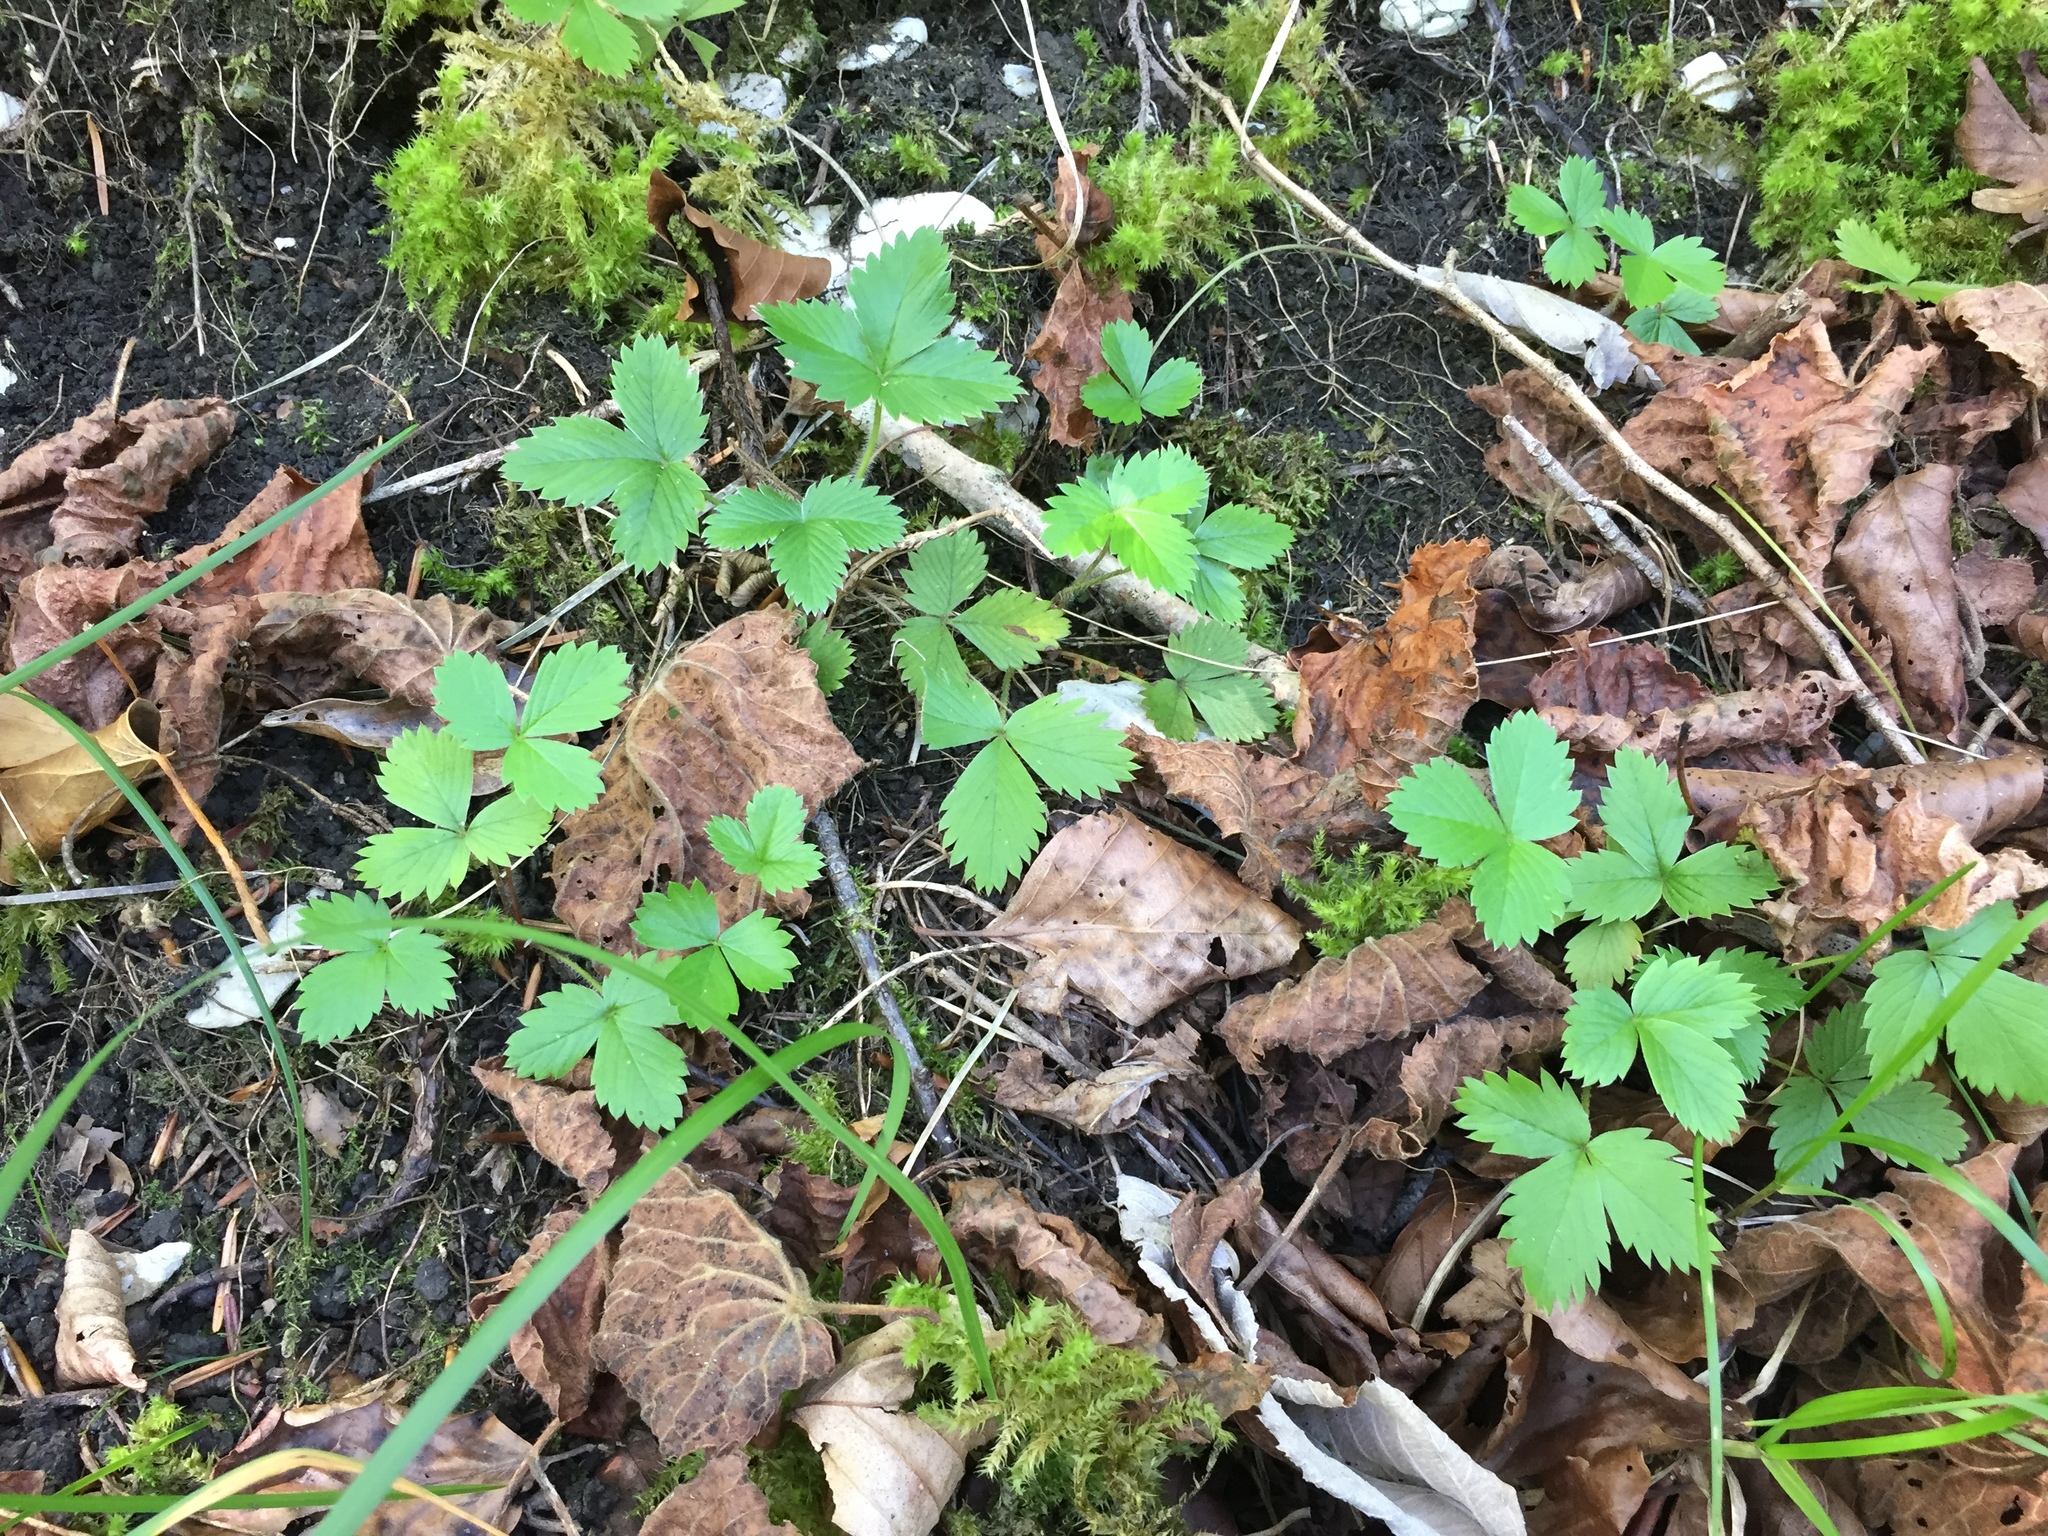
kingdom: Plantae
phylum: Tracheophyta
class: Magnoliopsida
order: Rosales
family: Rosaceae
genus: Fragaria
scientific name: Fragaria vesca
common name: Wild strawberry
